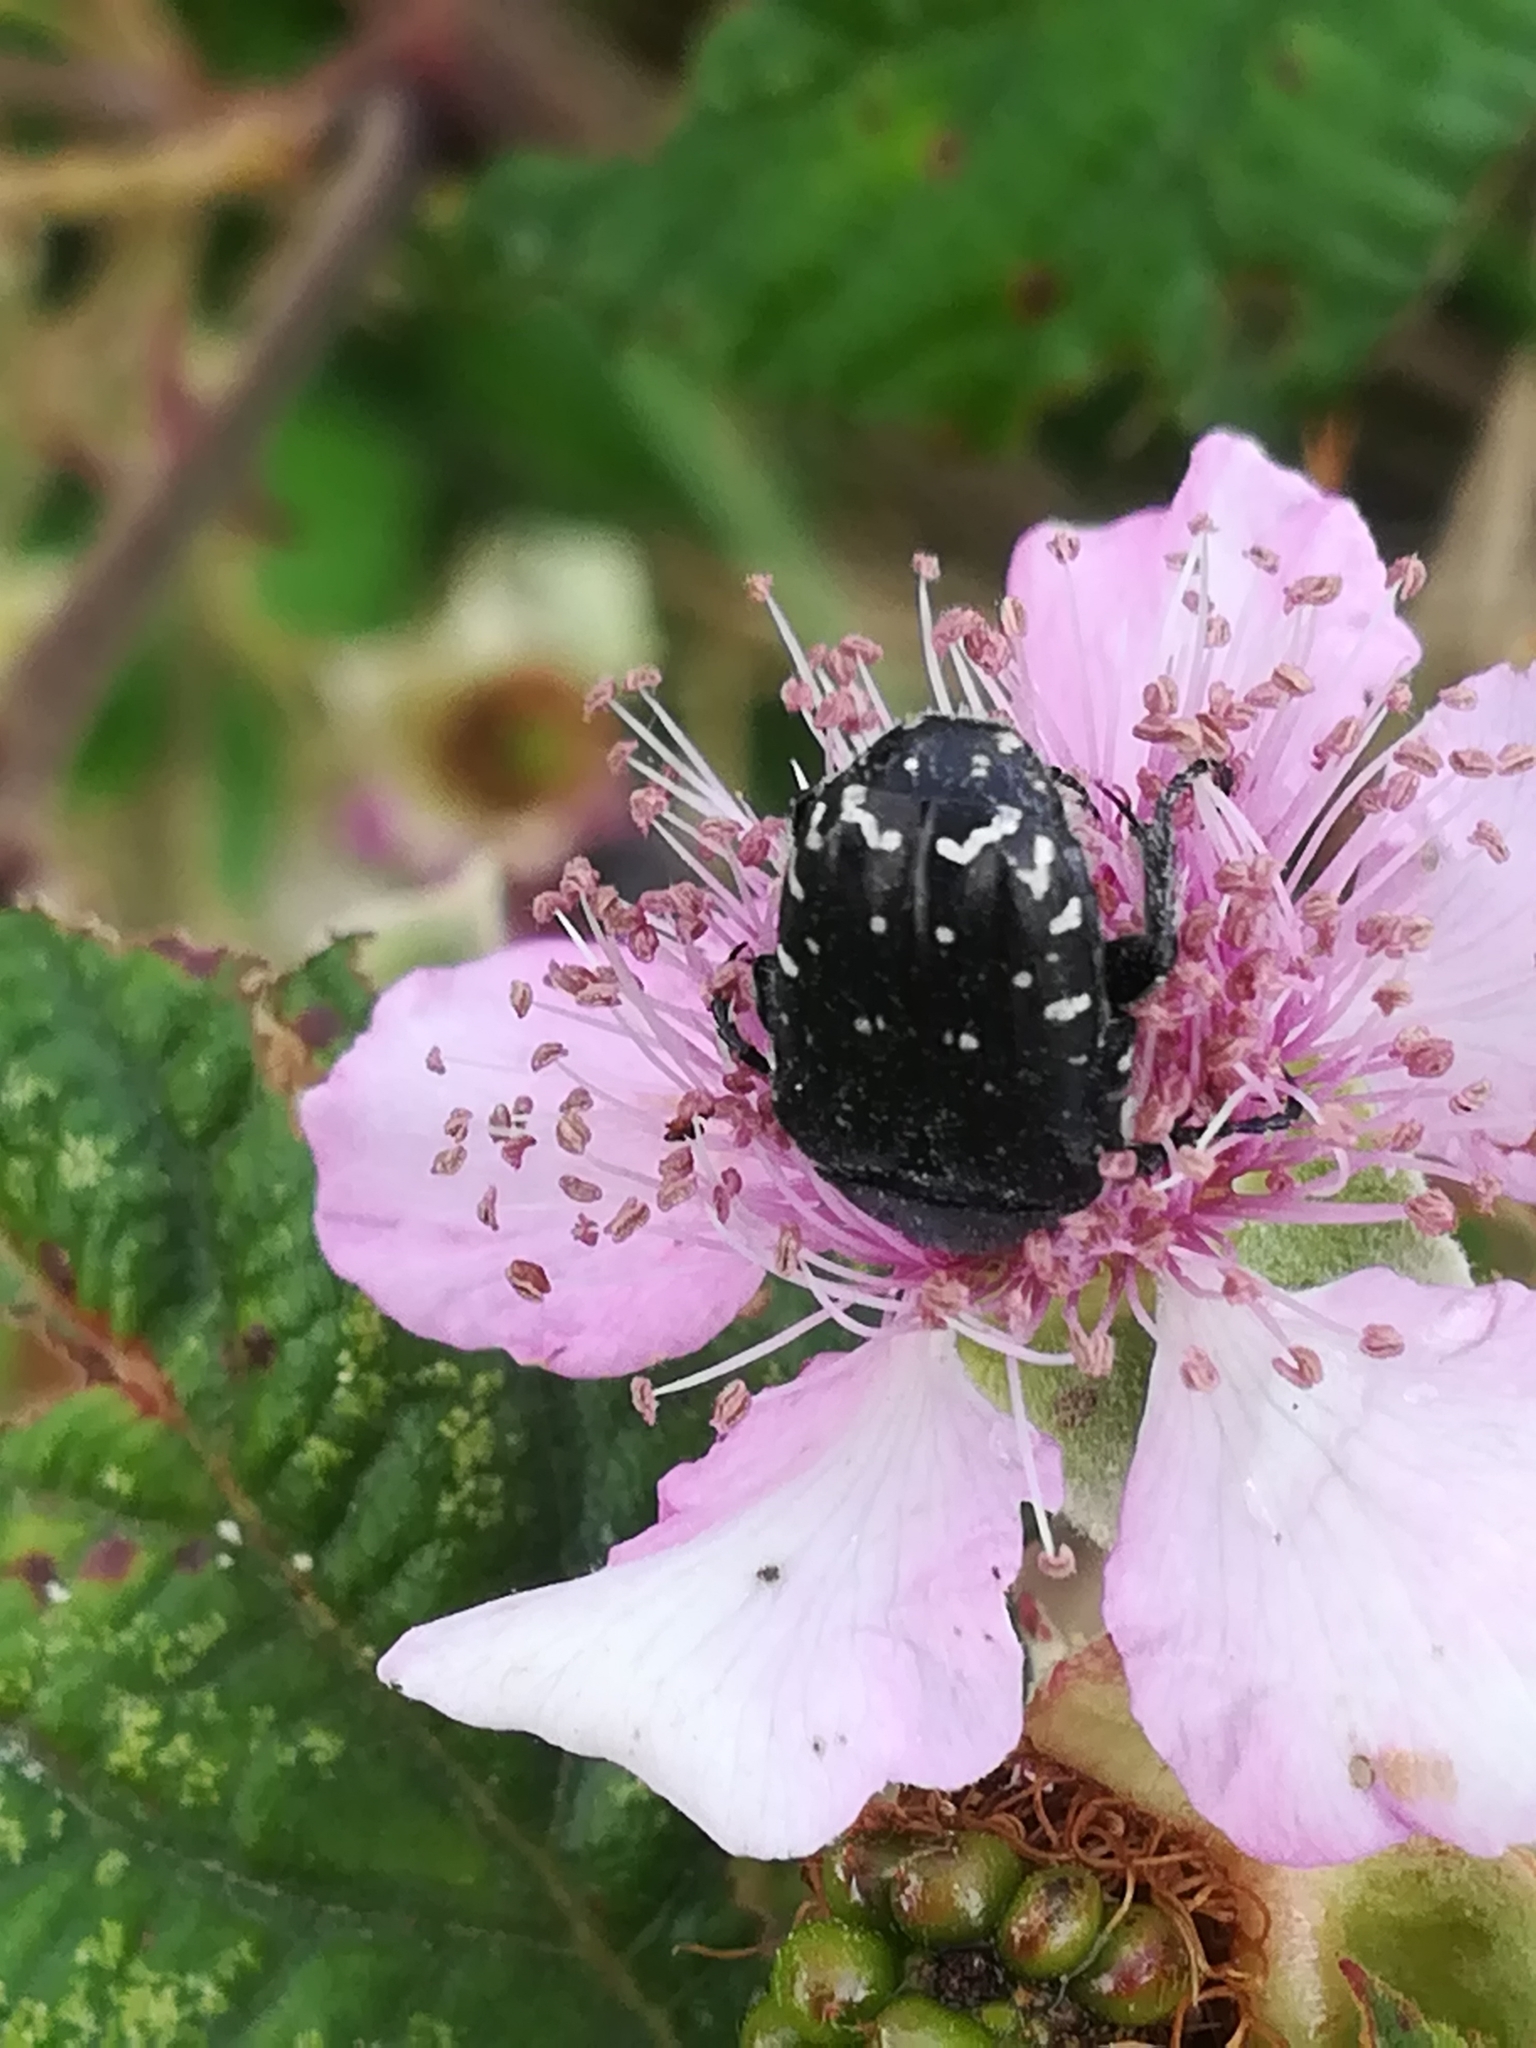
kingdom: Animalia
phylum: Arthropoda
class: Insecta
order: Coleoptera
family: Scarabaeidae
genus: Oxythyrea
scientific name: Oxythyrea funesta
